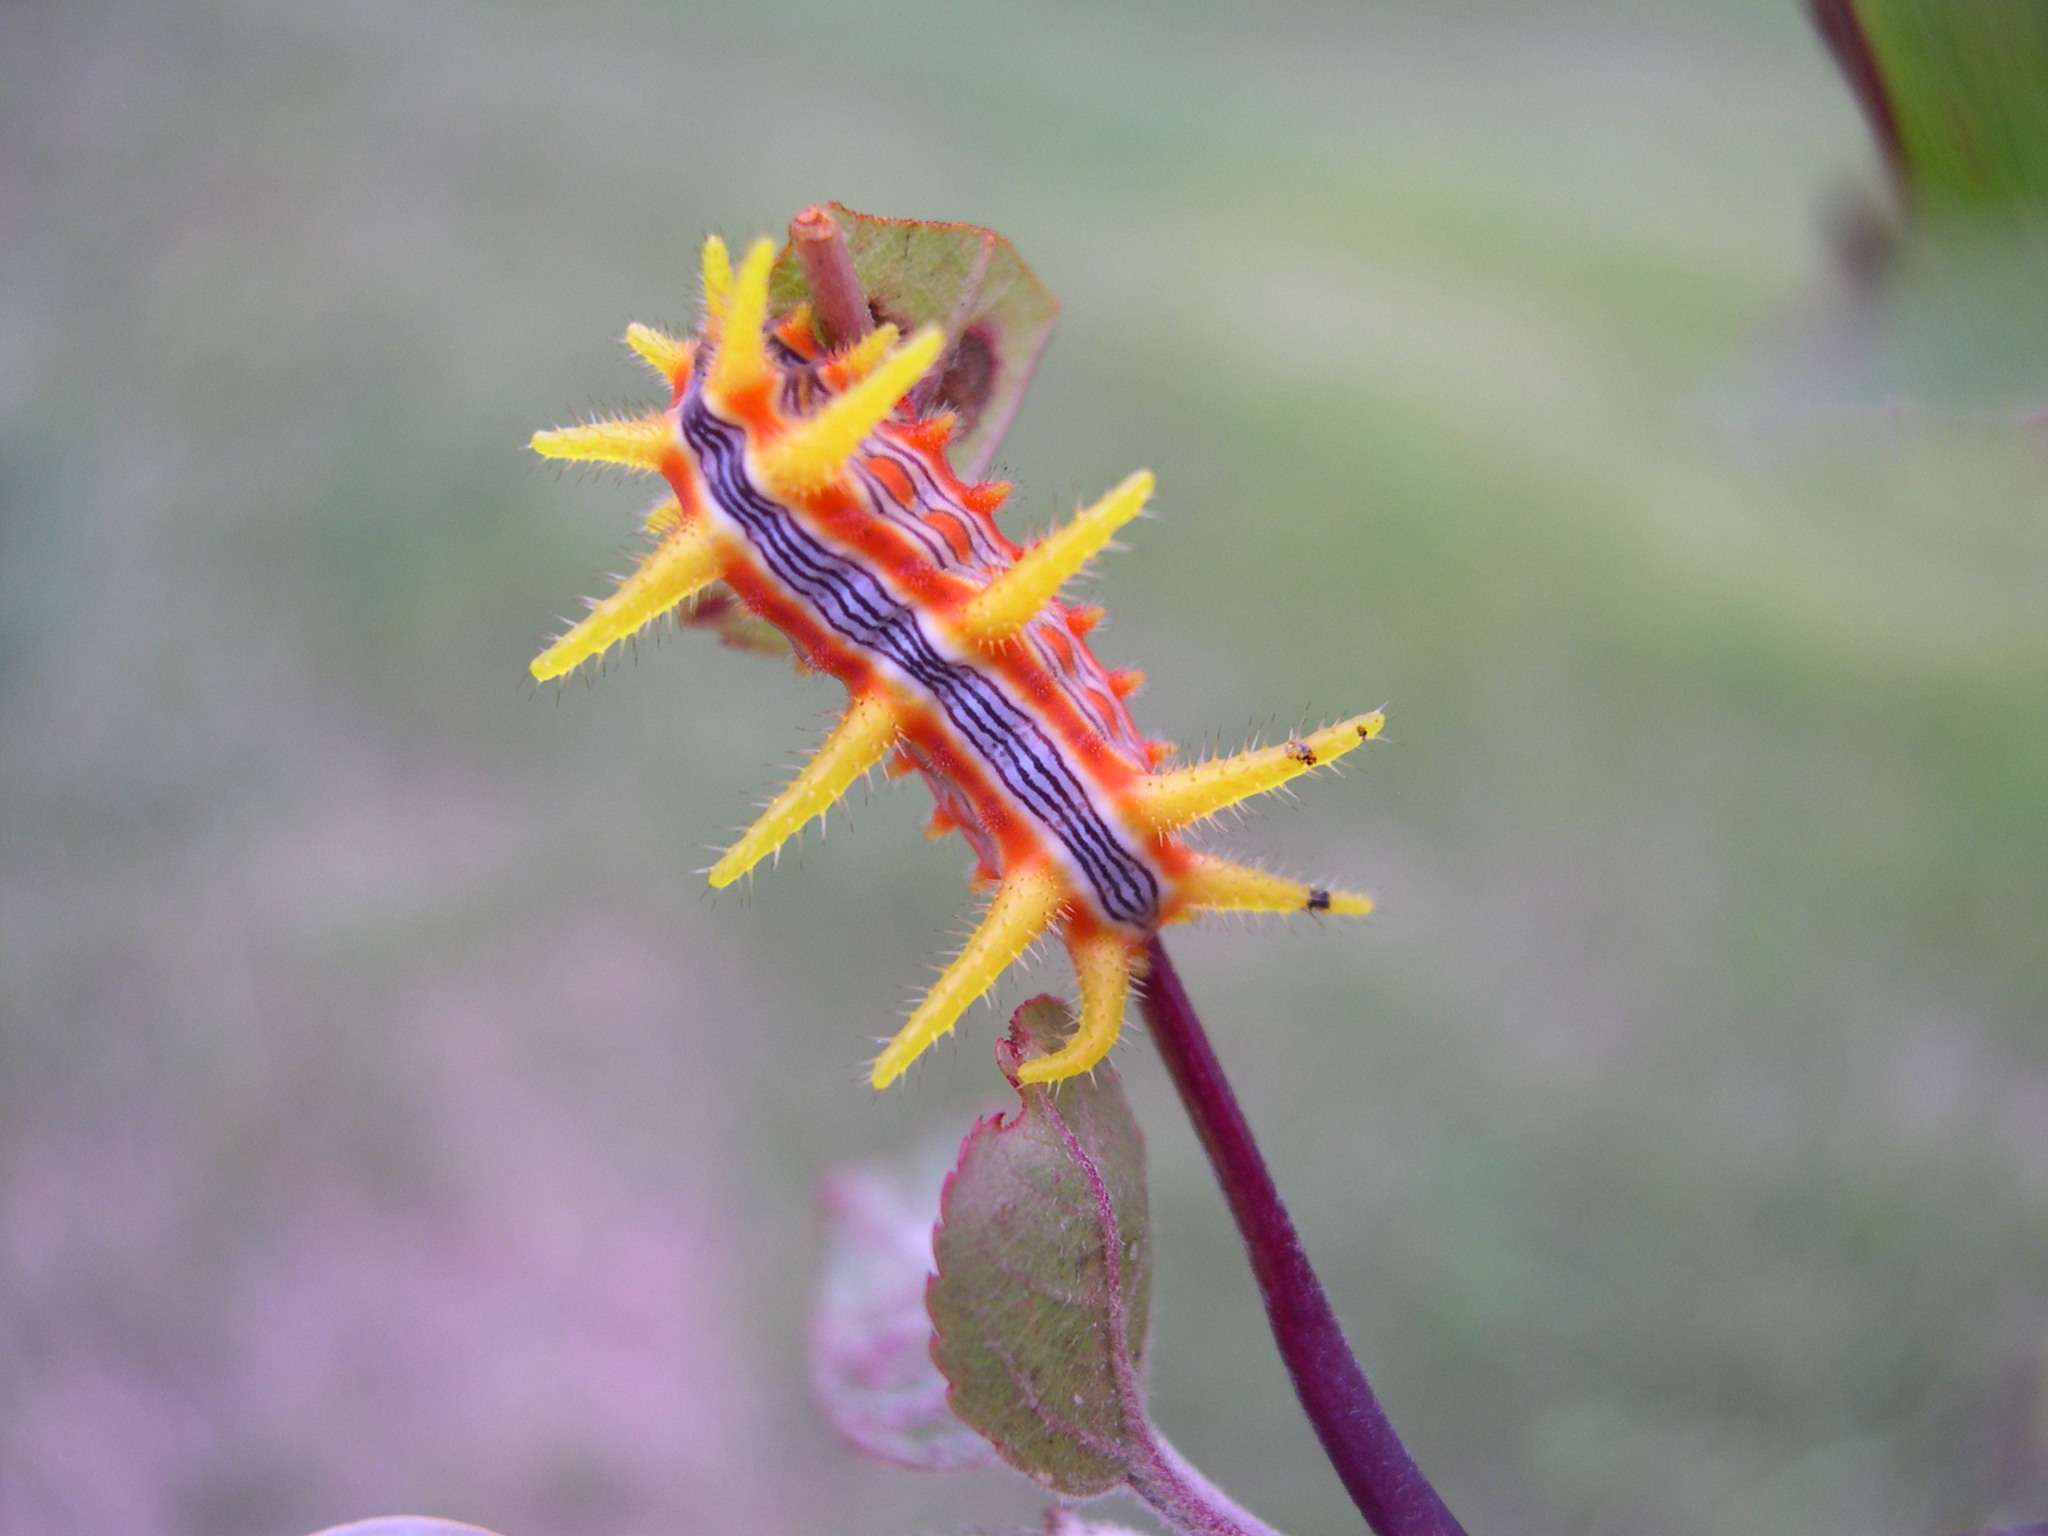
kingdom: Animalia
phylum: Arthropoda
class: Insecta
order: Lepidoptera
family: Limacodidae
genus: Parasa
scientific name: Parasa indetermina
